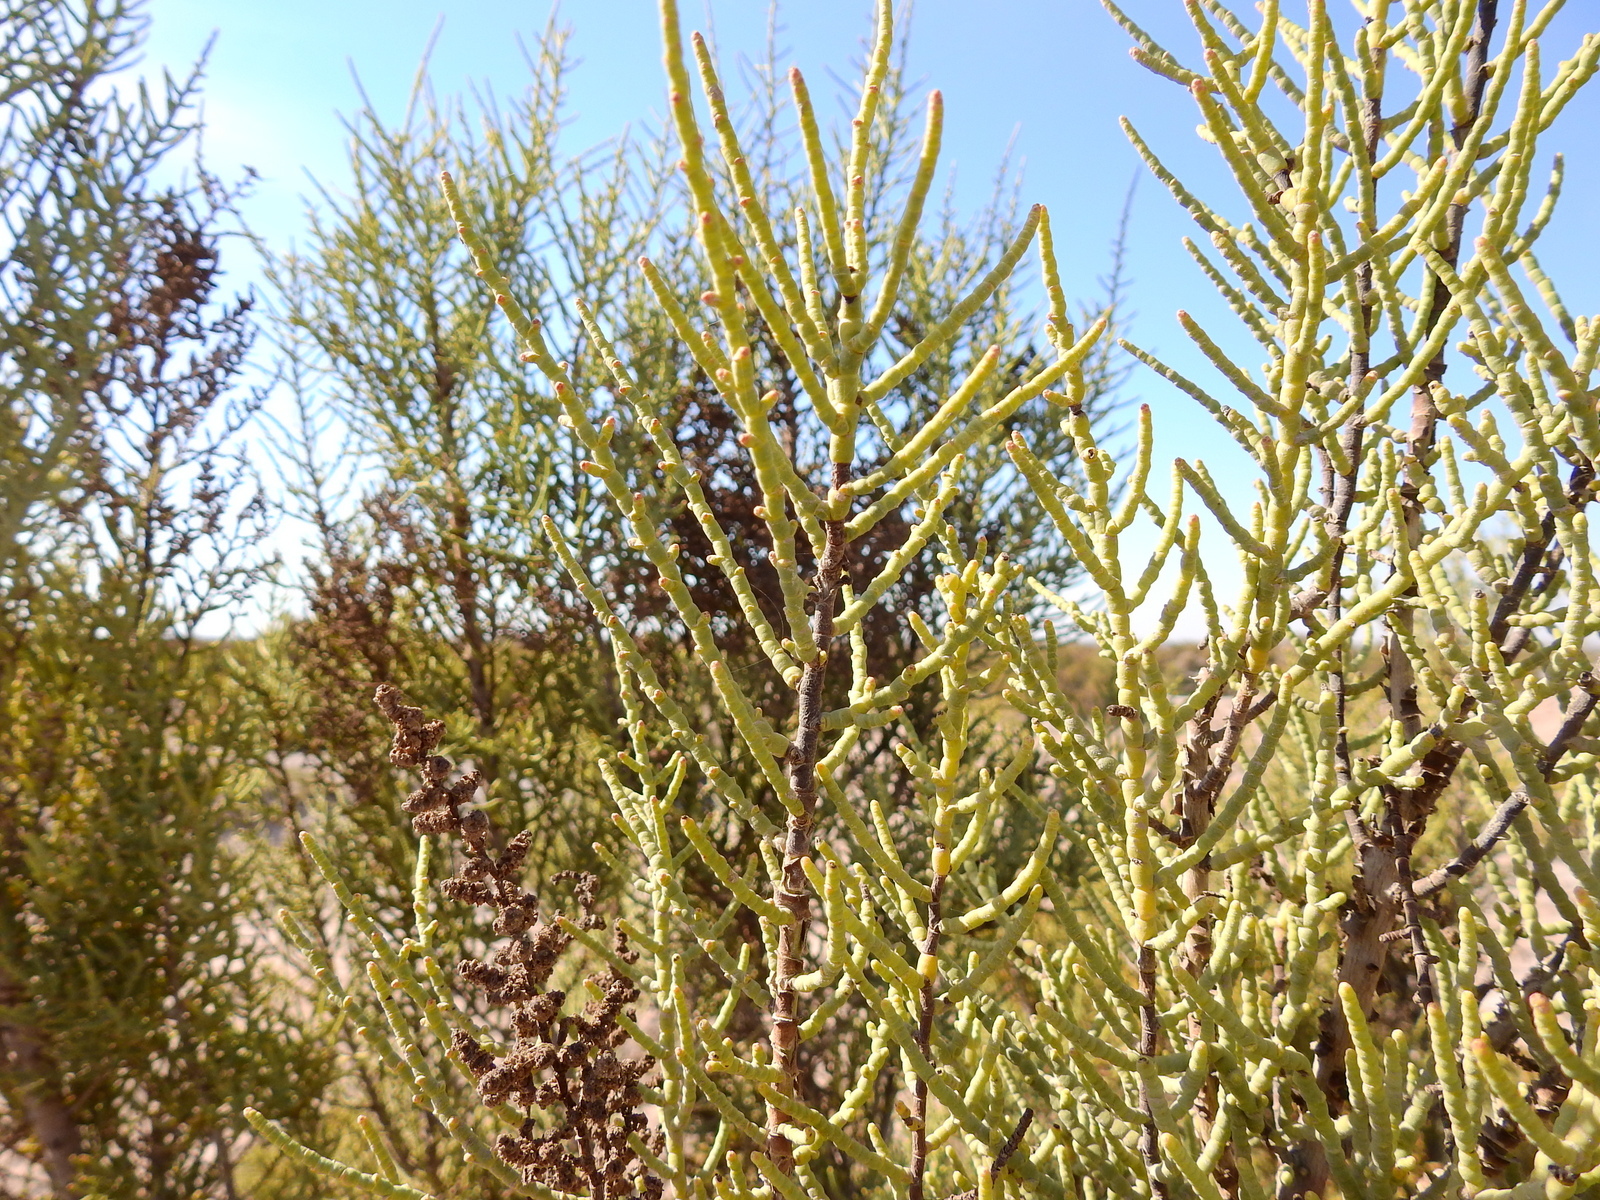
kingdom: Plantae
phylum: Tracheophyta
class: Magnoliopsida
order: Caryophyllales
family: Amaranthaceae
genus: Allenrolfea
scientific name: Allenrolfea vaginata
